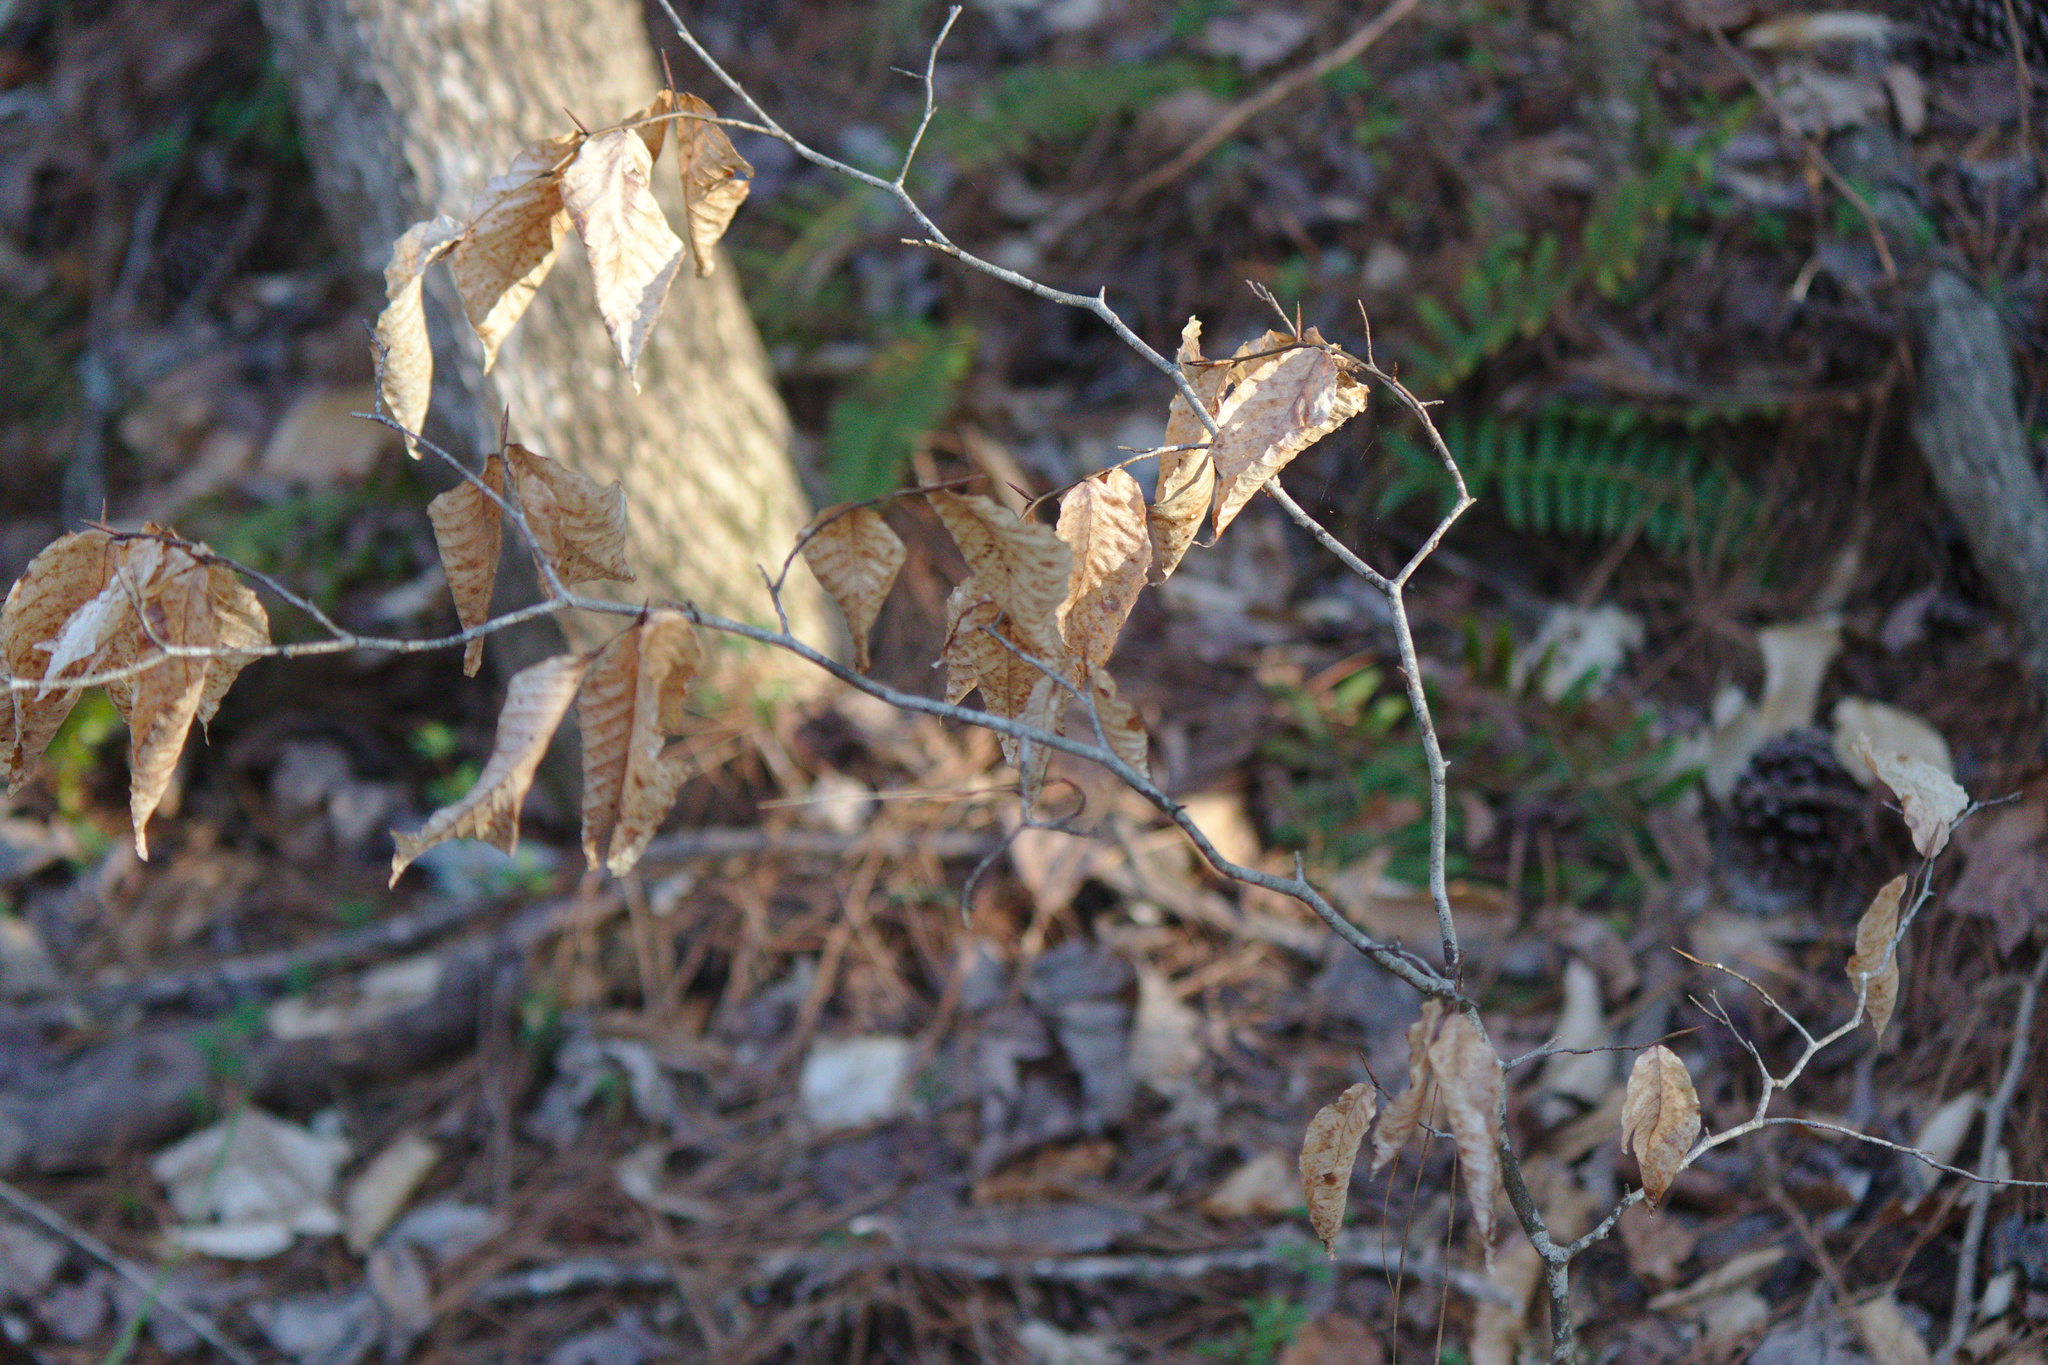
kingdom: Plantae
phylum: Tracheophyta
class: Magnoliopsida
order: Fagales
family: Fagaceae
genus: Fagus
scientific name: Fagus grandifolia
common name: American beech
